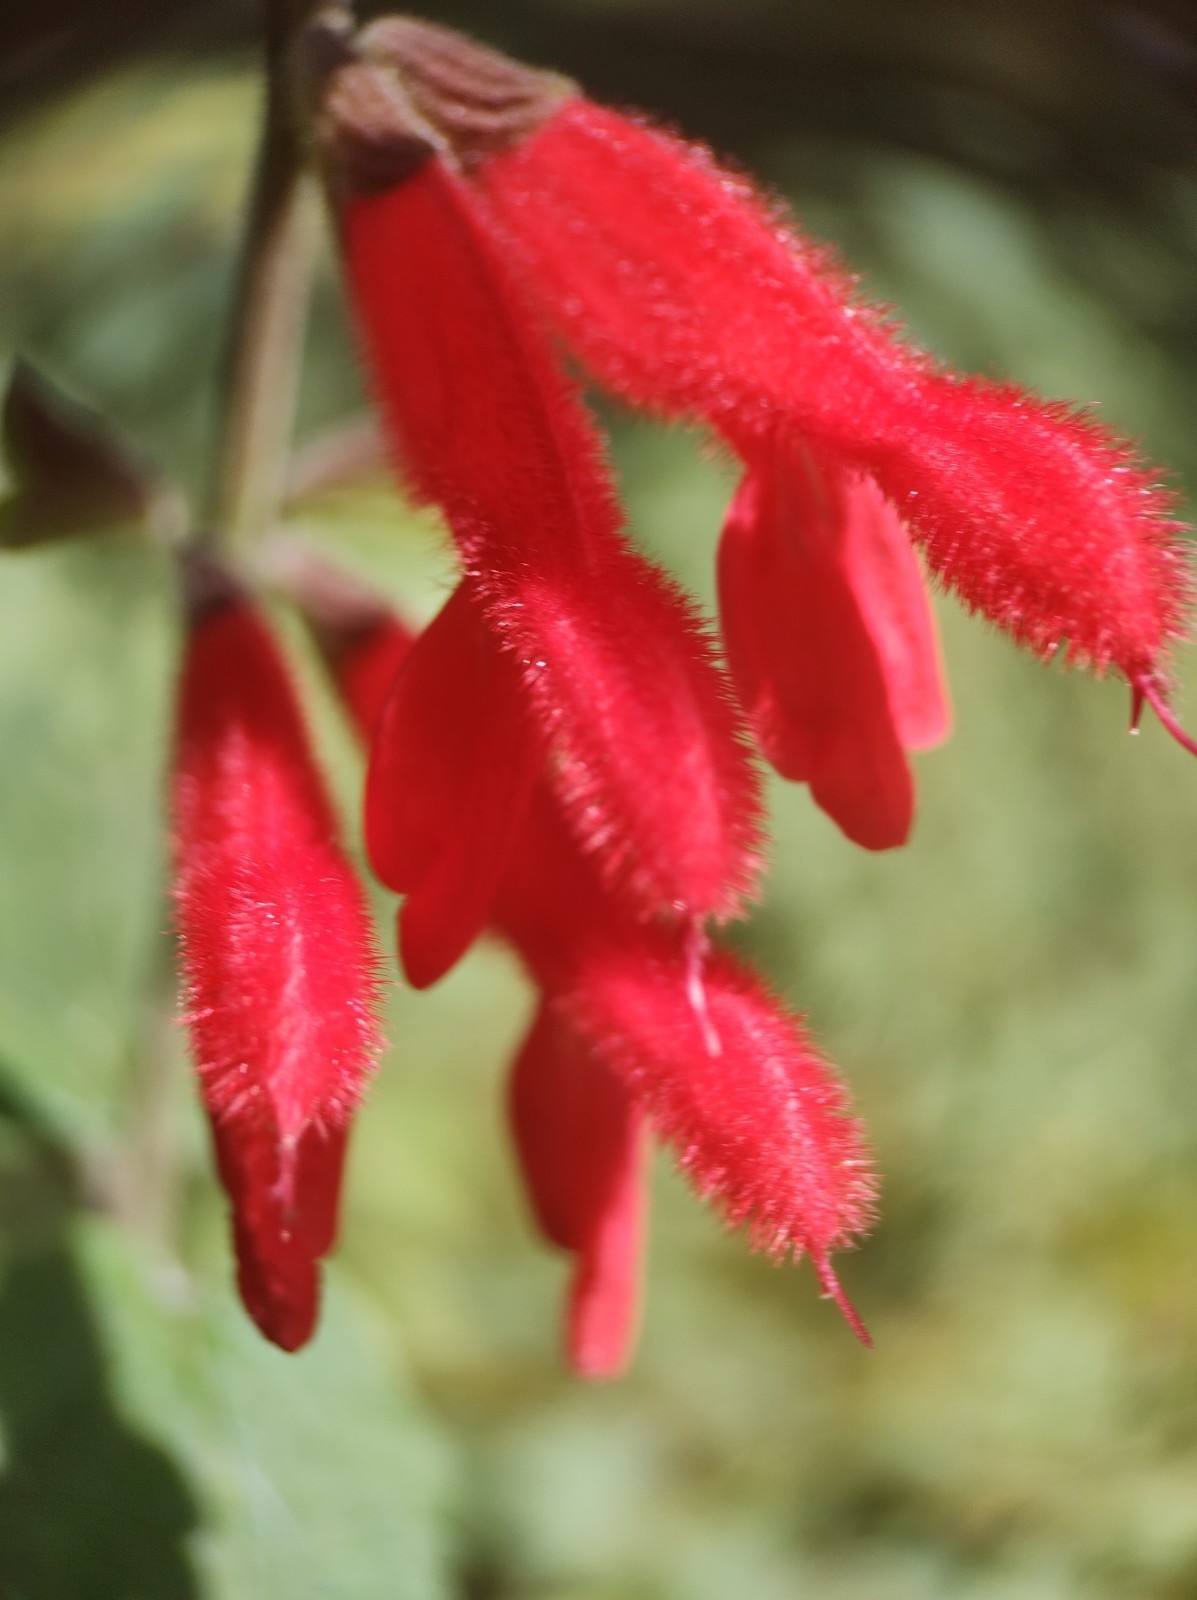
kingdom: Plantae
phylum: Tracheophyta
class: Magnoliopsida
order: Lamiales
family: Lamiaceae
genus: Salvia
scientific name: Salvia fulgens
